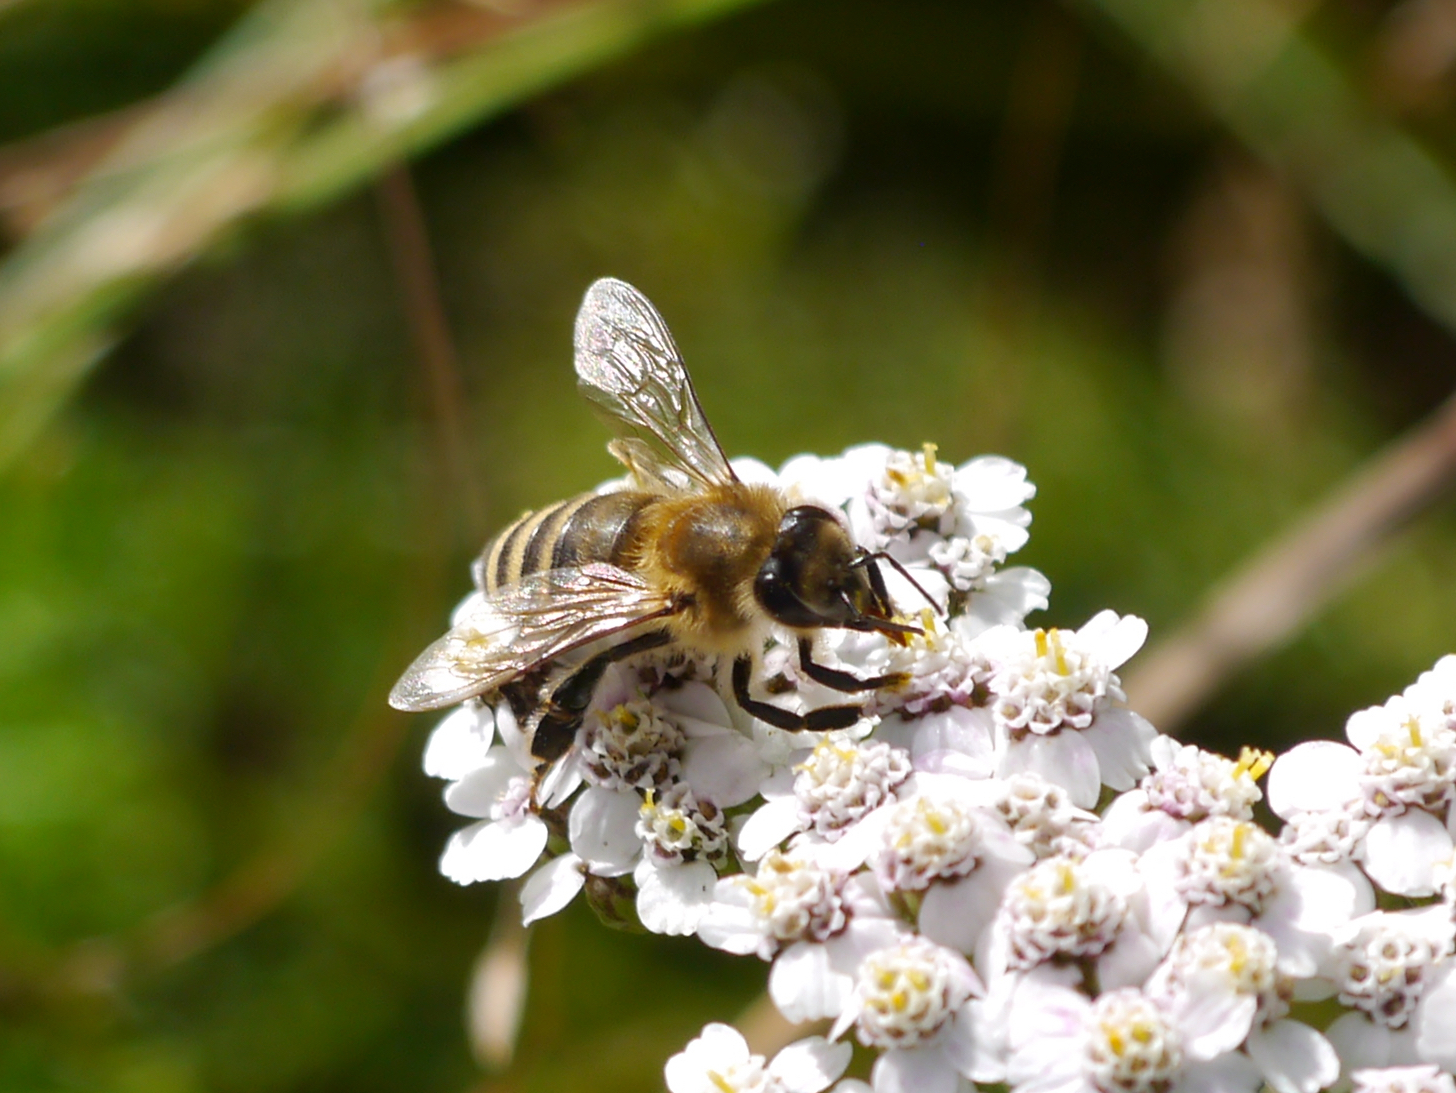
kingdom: Animalia
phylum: Arthropoda
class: Insecta
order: Hymenoptera
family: Apidae
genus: Apis
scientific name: Apis mellifera
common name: Honey bee
